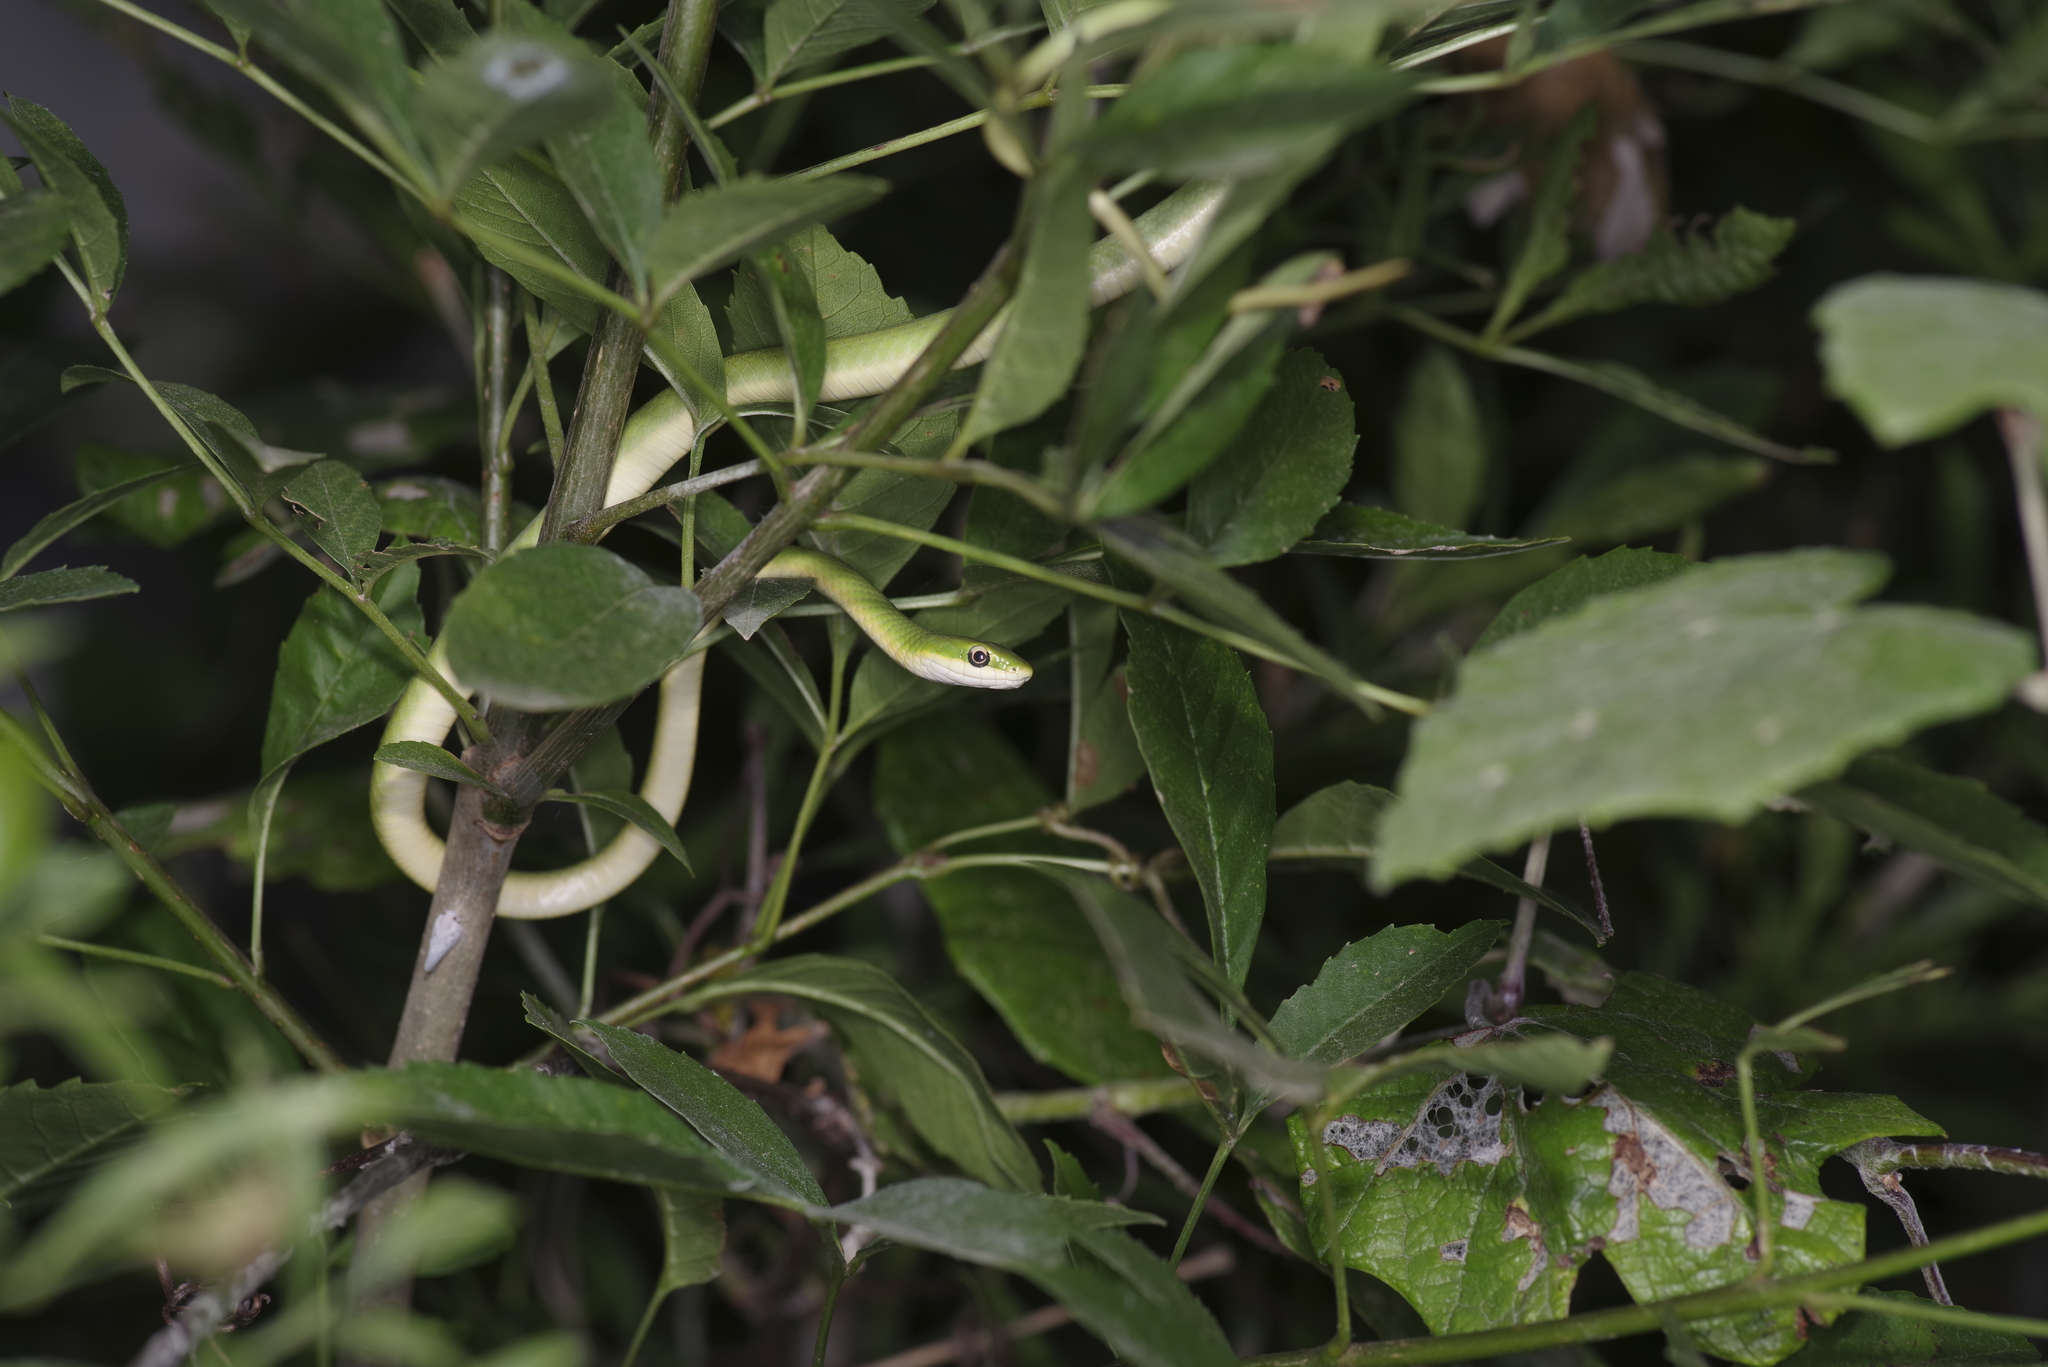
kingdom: Animalia
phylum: Chordata
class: Squamata
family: Colubridae
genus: Opheodrys
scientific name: Opheodrys aestivus
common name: Rough greensnake
